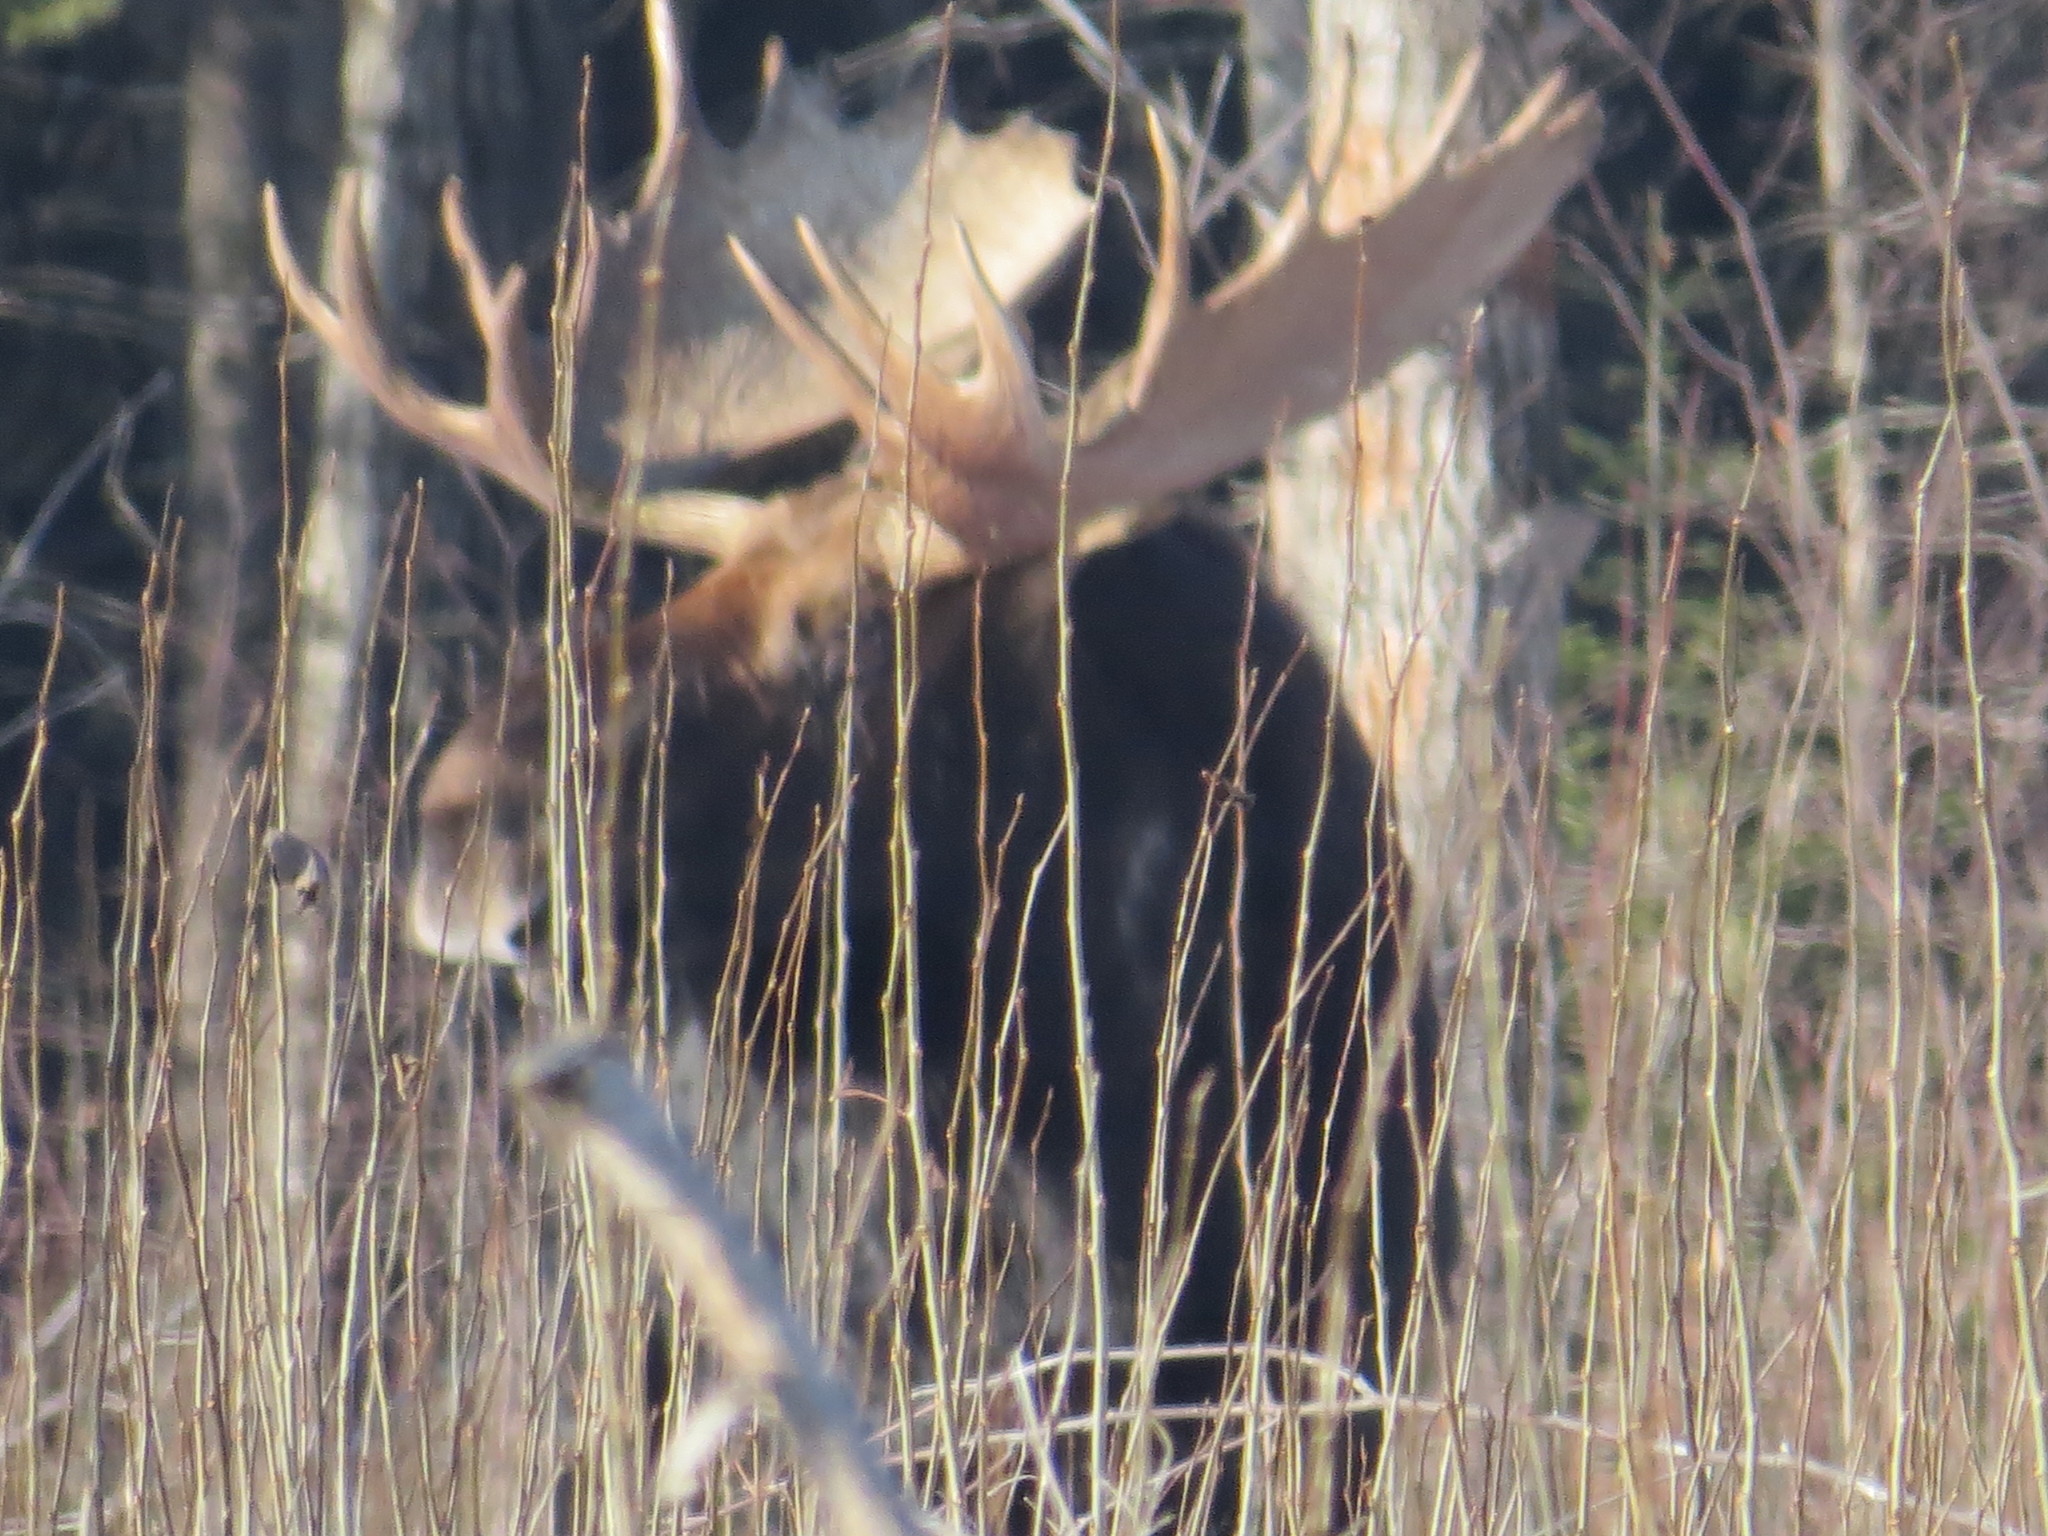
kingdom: Animalia
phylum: Chordata
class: Mammalia
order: Artiodactyla
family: Cervidae
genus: Alces
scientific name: Alces alces
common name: Moose
